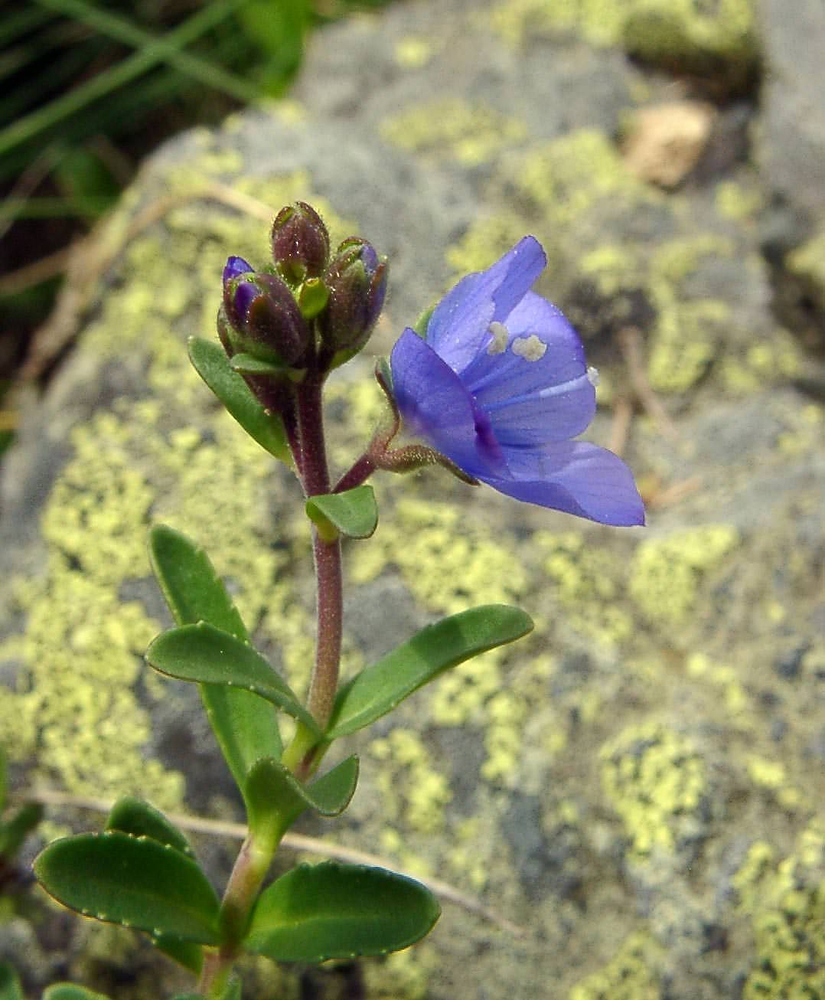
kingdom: Plantae
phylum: Tracheophyta
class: Magnoliopsida
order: Lamiales
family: Plantaginaceae
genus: Veronica
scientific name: Veronica fruticans
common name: Rock speedwell
